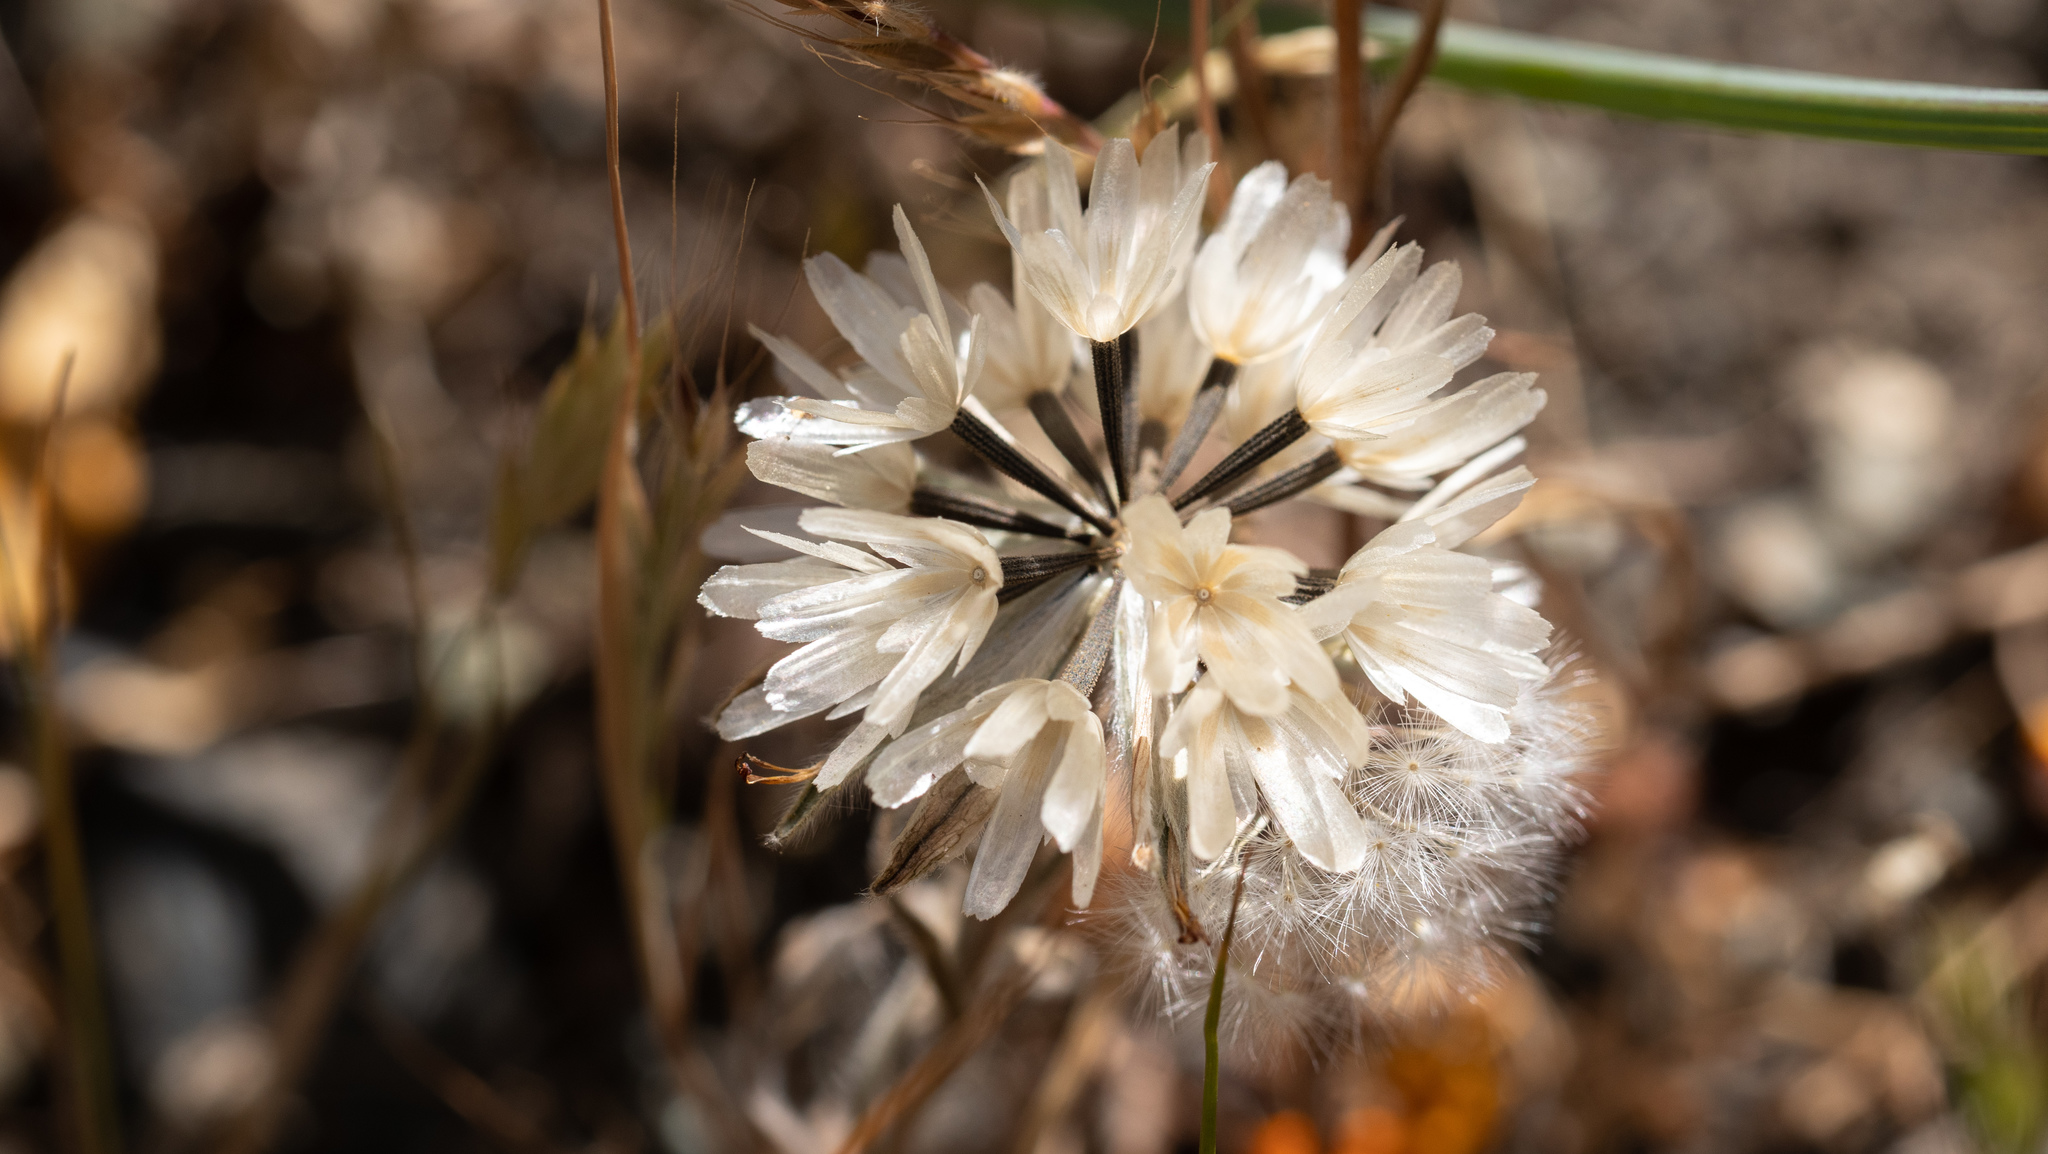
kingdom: Plantae
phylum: Tracheophyta
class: Magnoliopsida
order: Asterales
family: Asteraceae
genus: Achyrachaena
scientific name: Achyrachaena mollis
